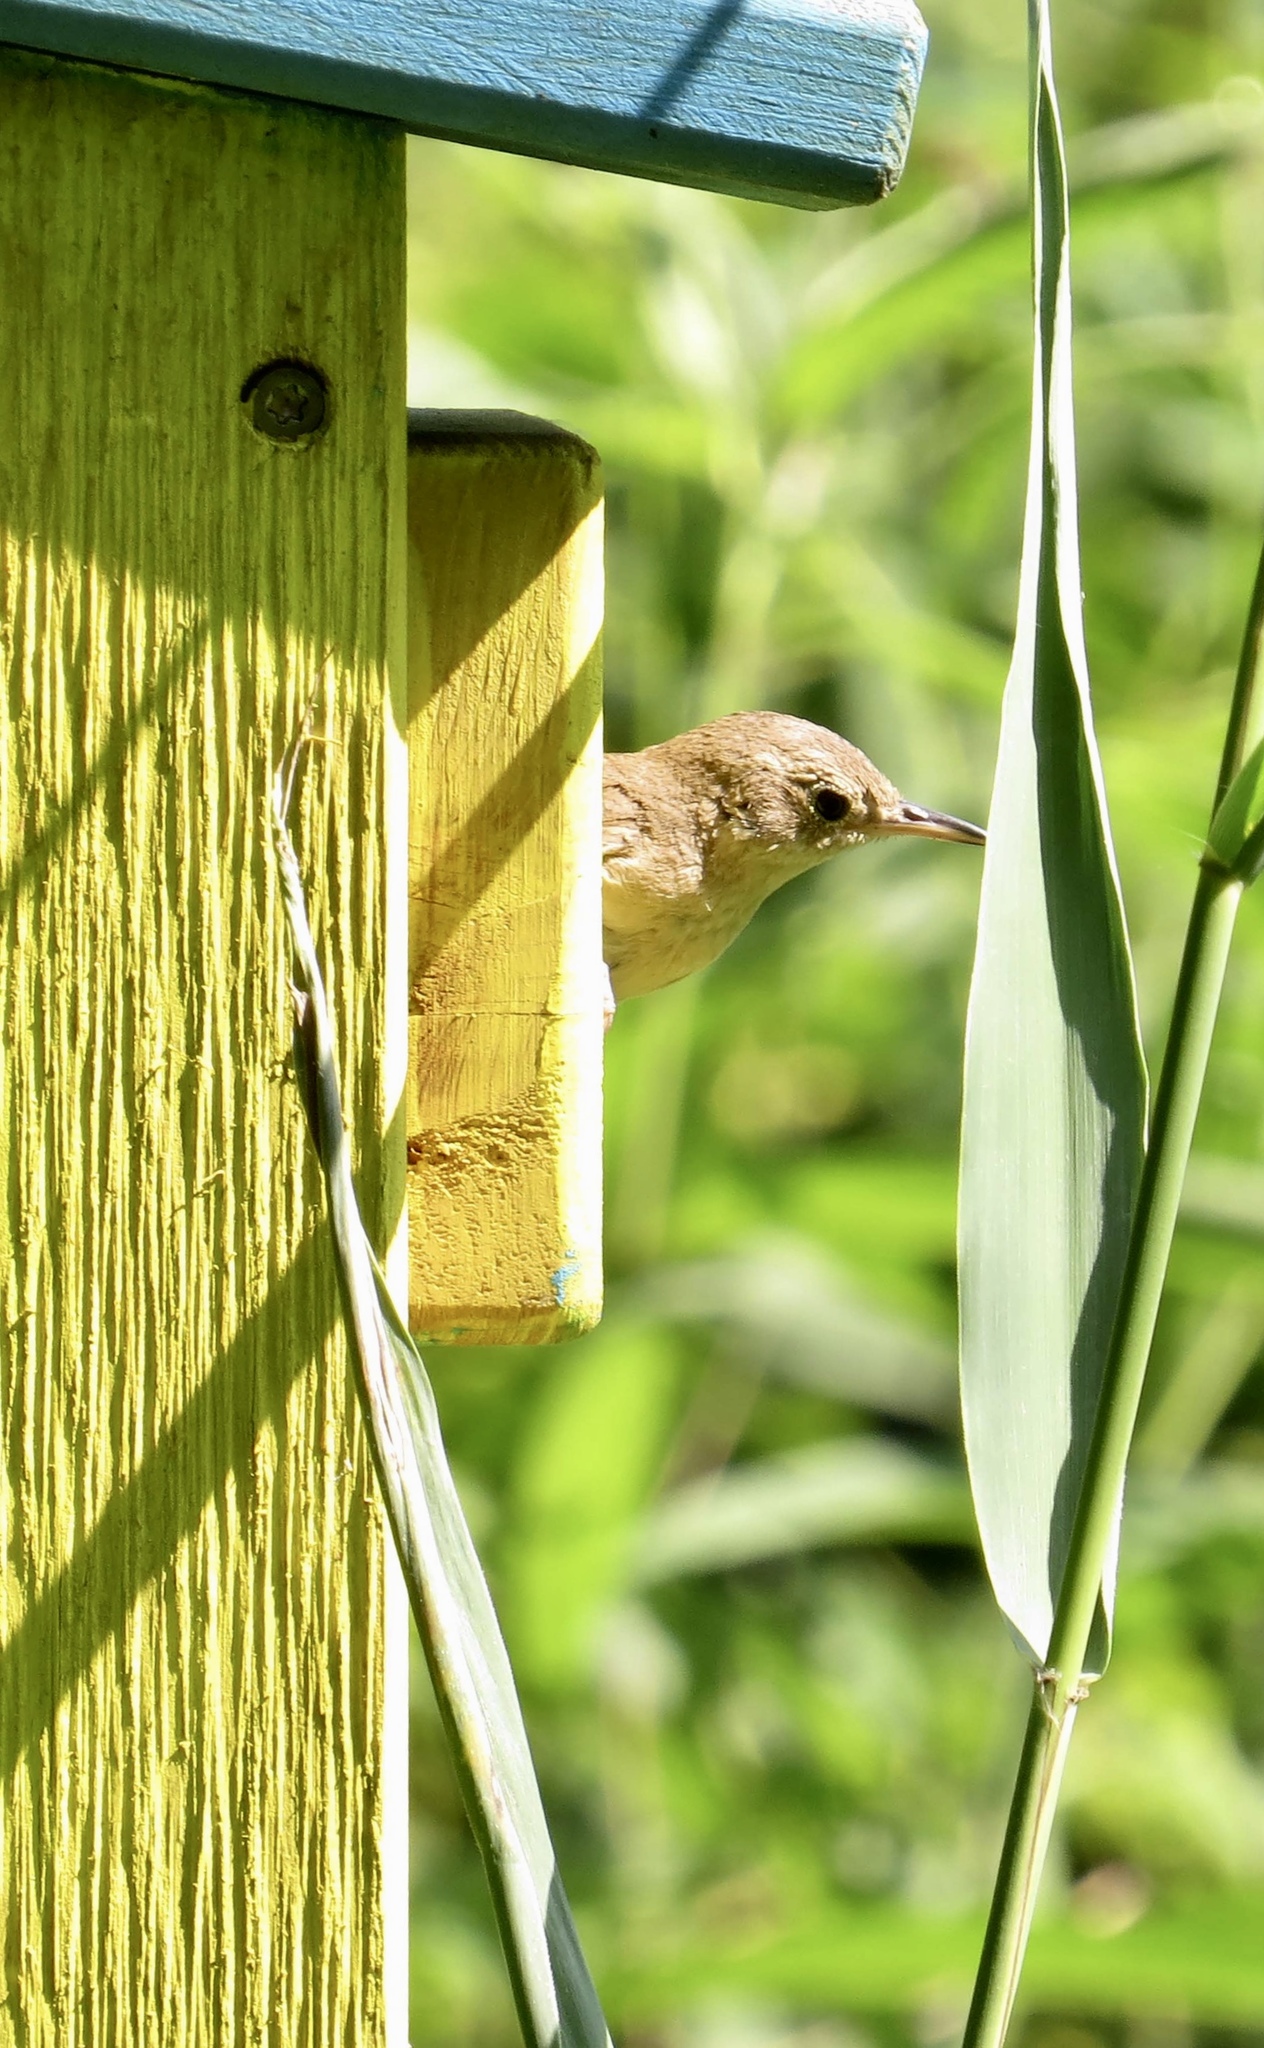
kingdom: Animalia
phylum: Chordata
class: Aves
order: Passeriformes
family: Troglodytidae
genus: Troglodytes
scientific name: Troglodytes aedon
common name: House wren
